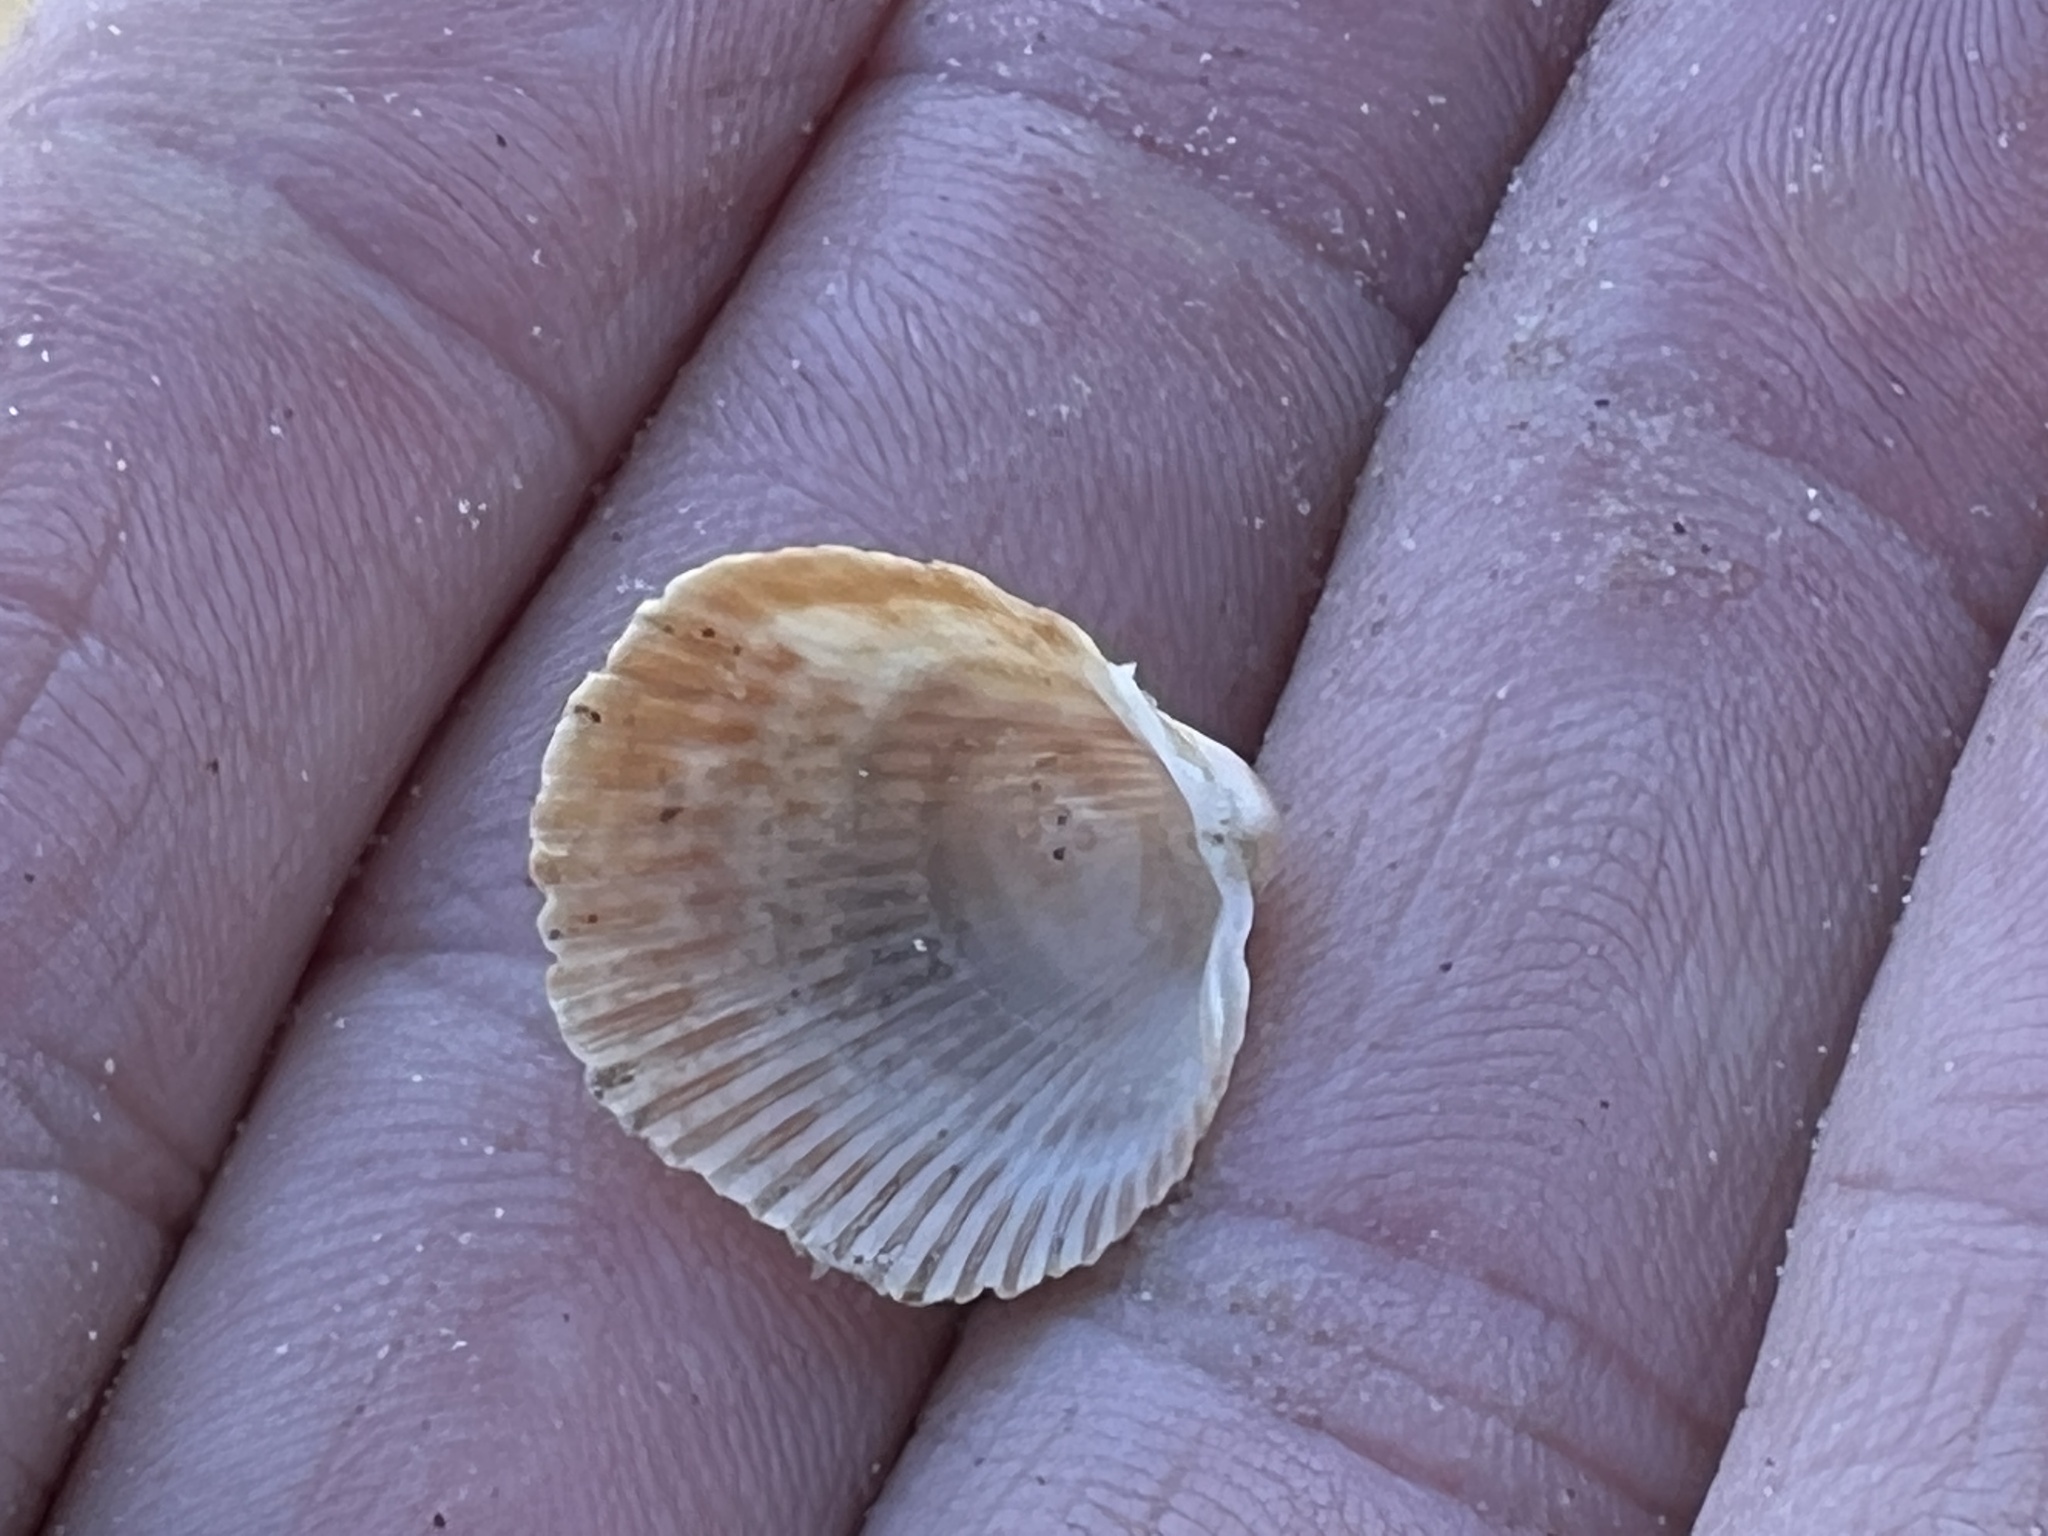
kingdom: Animalia
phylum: Mollusca
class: Bivalvia
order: Cardiida
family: Cardiidae
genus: Dinocardium
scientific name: Dinocardium robustum
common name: Atlantic giant cockle
